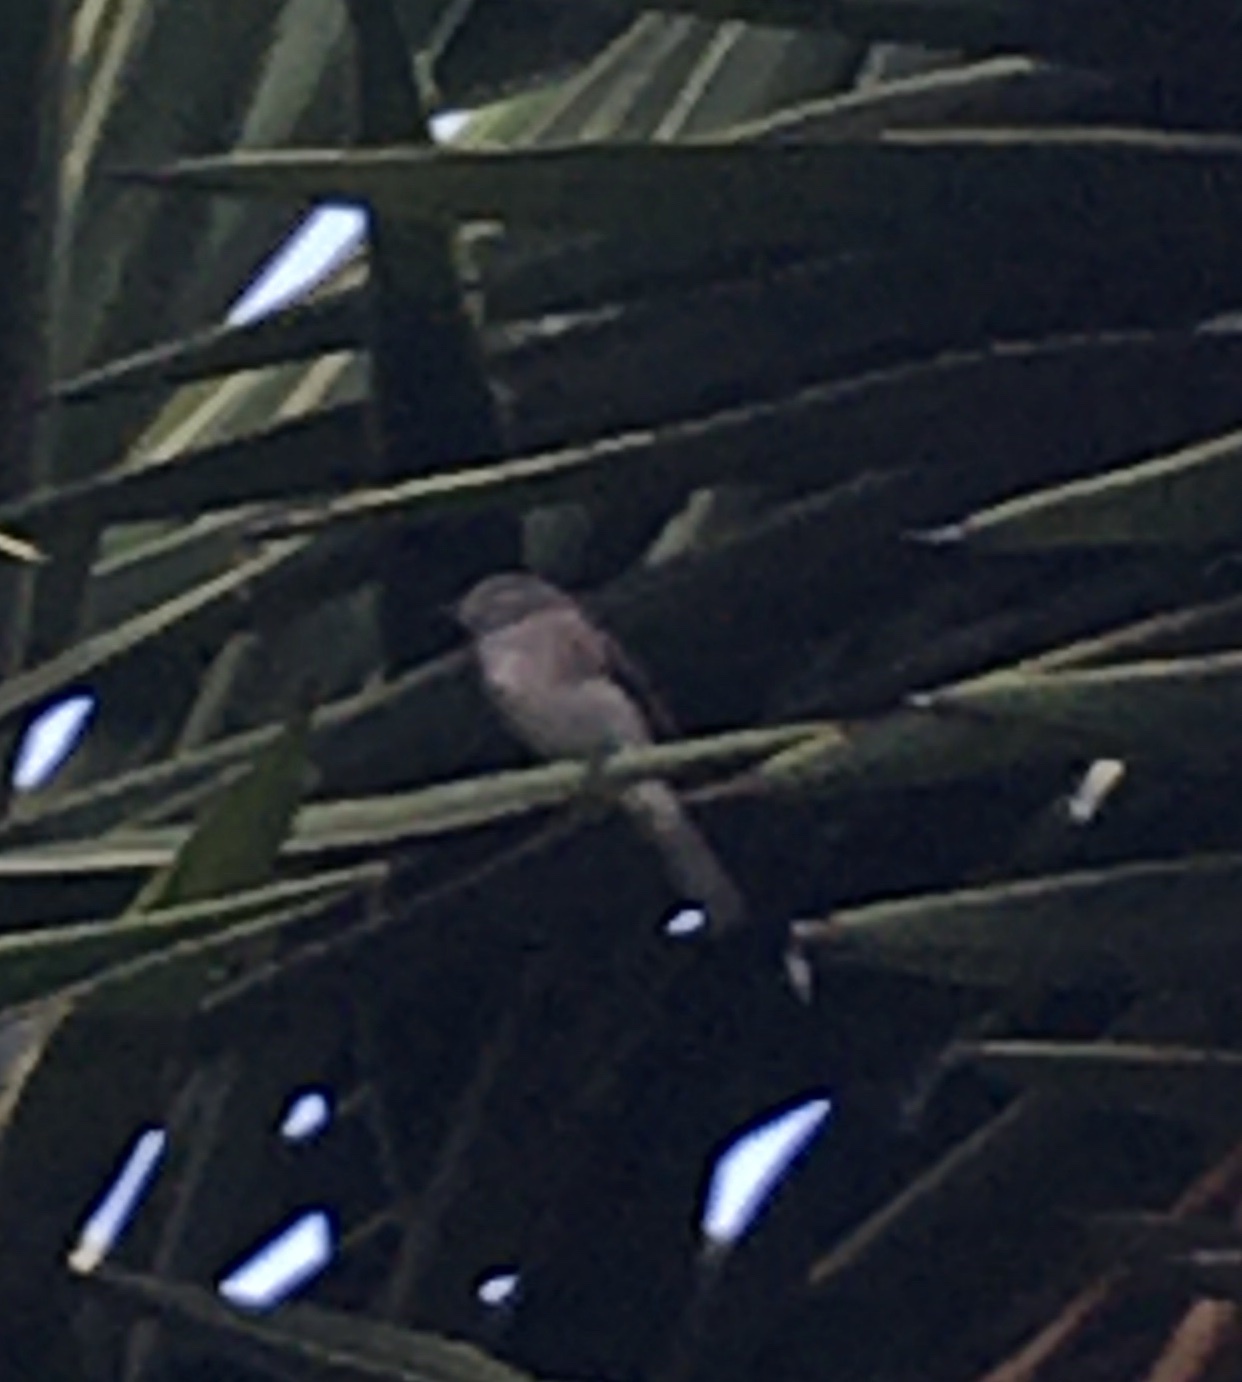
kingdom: Animalia
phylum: Chordata
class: Aves
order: Passeriformes
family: Muscicapidae
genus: Muscicapa
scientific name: Muscicapa adusta
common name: African dusky flycatcher
